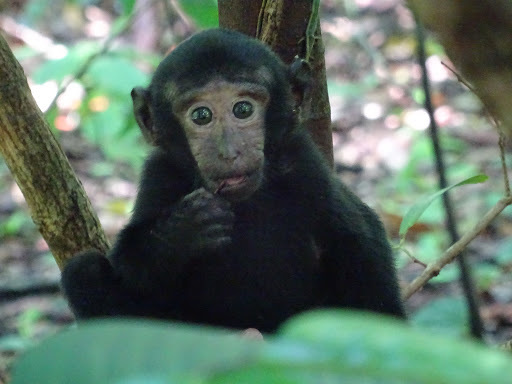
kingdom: Animalia
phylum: Chordata
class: Mammalia
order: Primates
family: Cercopithecidae
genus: Macaca
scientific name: Macaca nigra
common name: Celebes crested macaque
